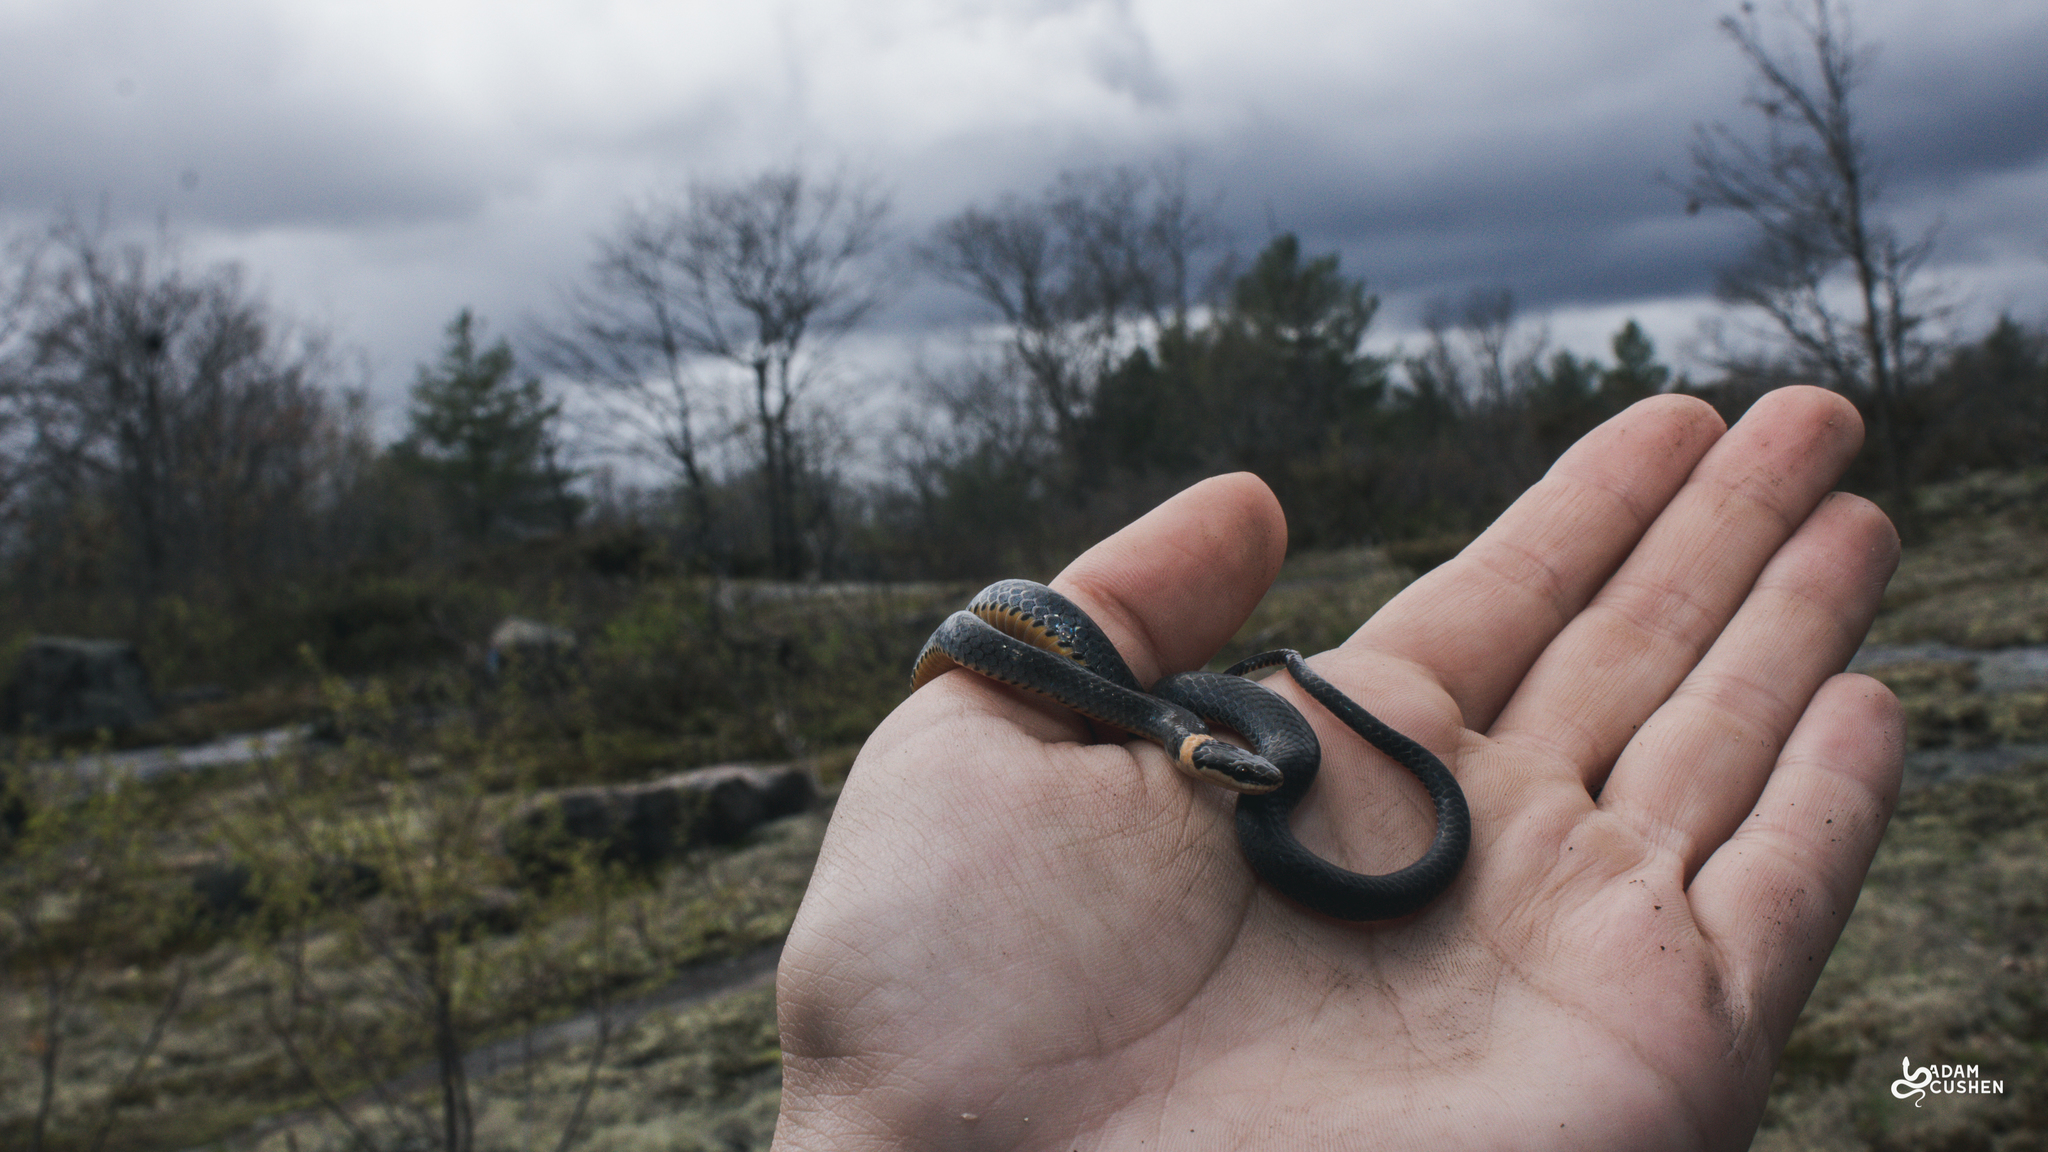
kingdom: Animalia
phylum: Chordata
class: Squamata
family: Colubridae
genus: Diadophis
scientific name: Diadophis punctatus
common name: Ringneck snake
